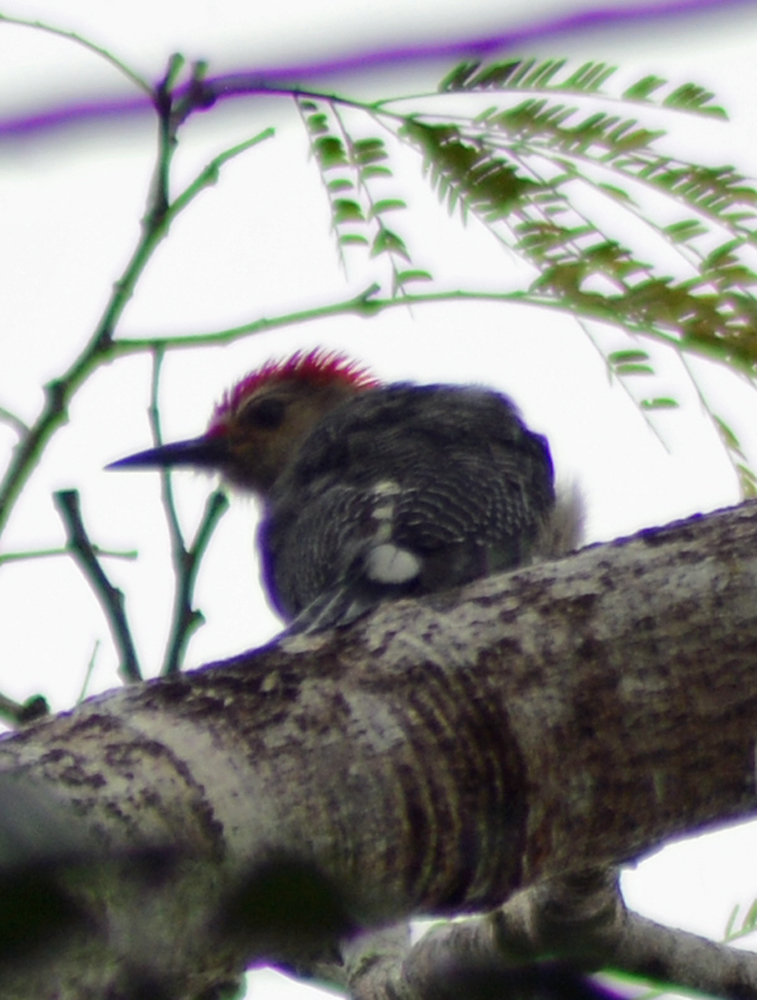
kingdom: Animalia
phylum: Chordata
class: Aves
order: Piciformes
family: Picidae
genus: Melanerpes
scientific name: Melanerpes aurifrons
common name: Golden-fronted woodpecker
